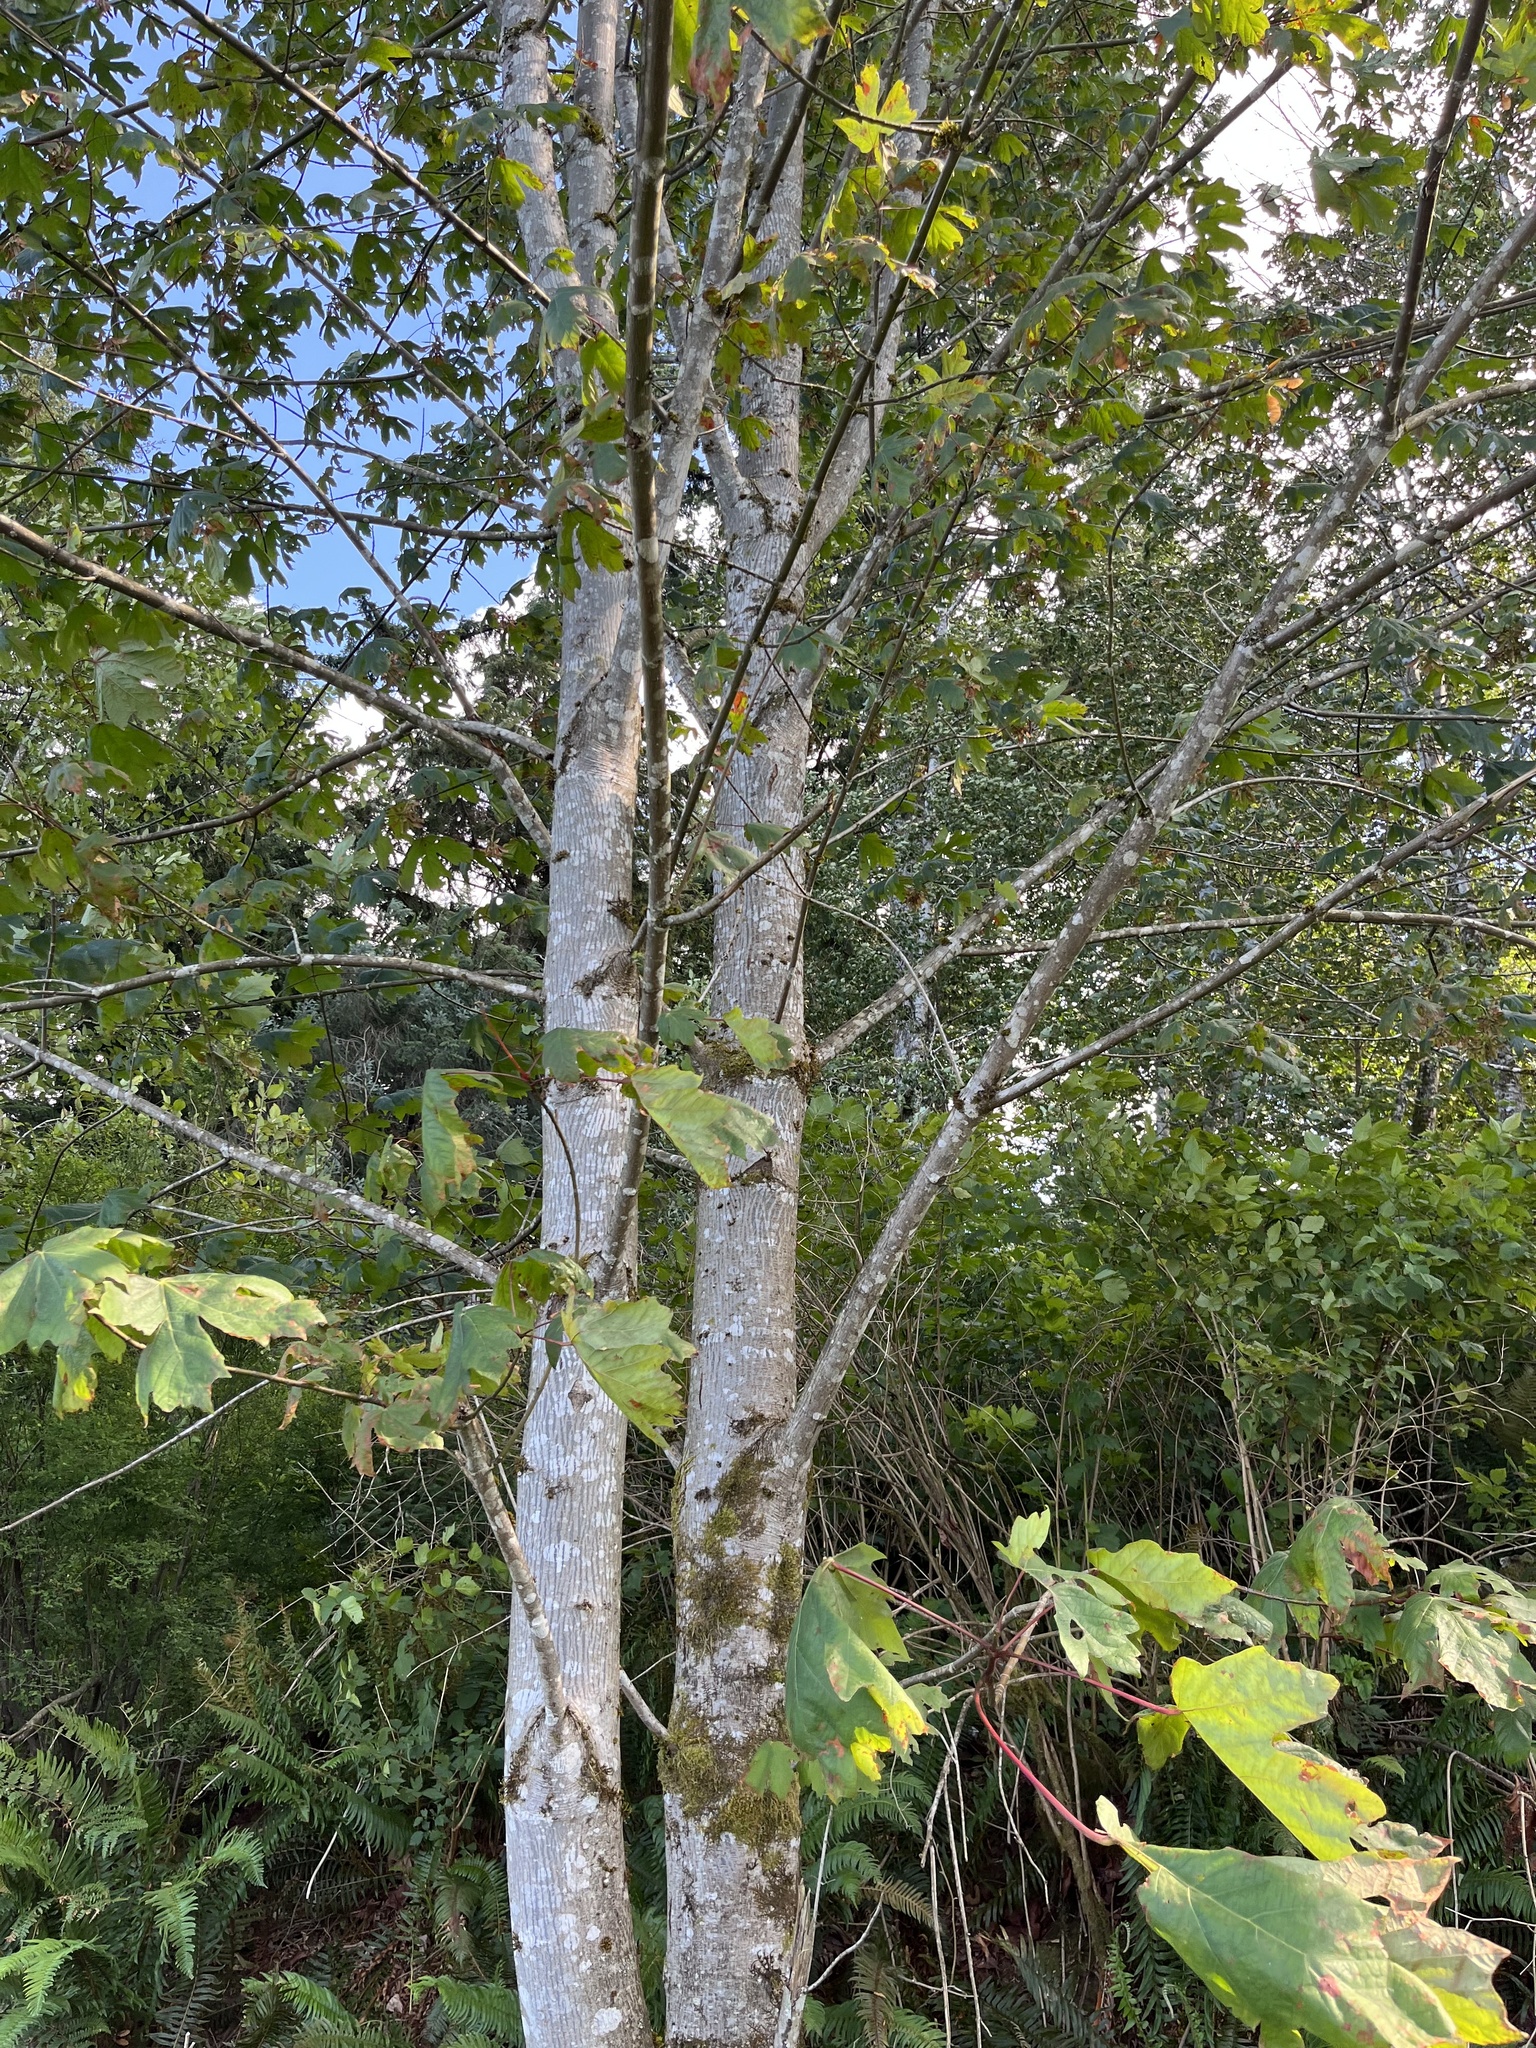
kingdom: Plantae
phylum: Tracheophyta
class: Magnoliopsida
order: Sapindales
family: Sapindaceae
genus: Acer
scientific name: Acer macrophyllum
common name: Oregon maple
